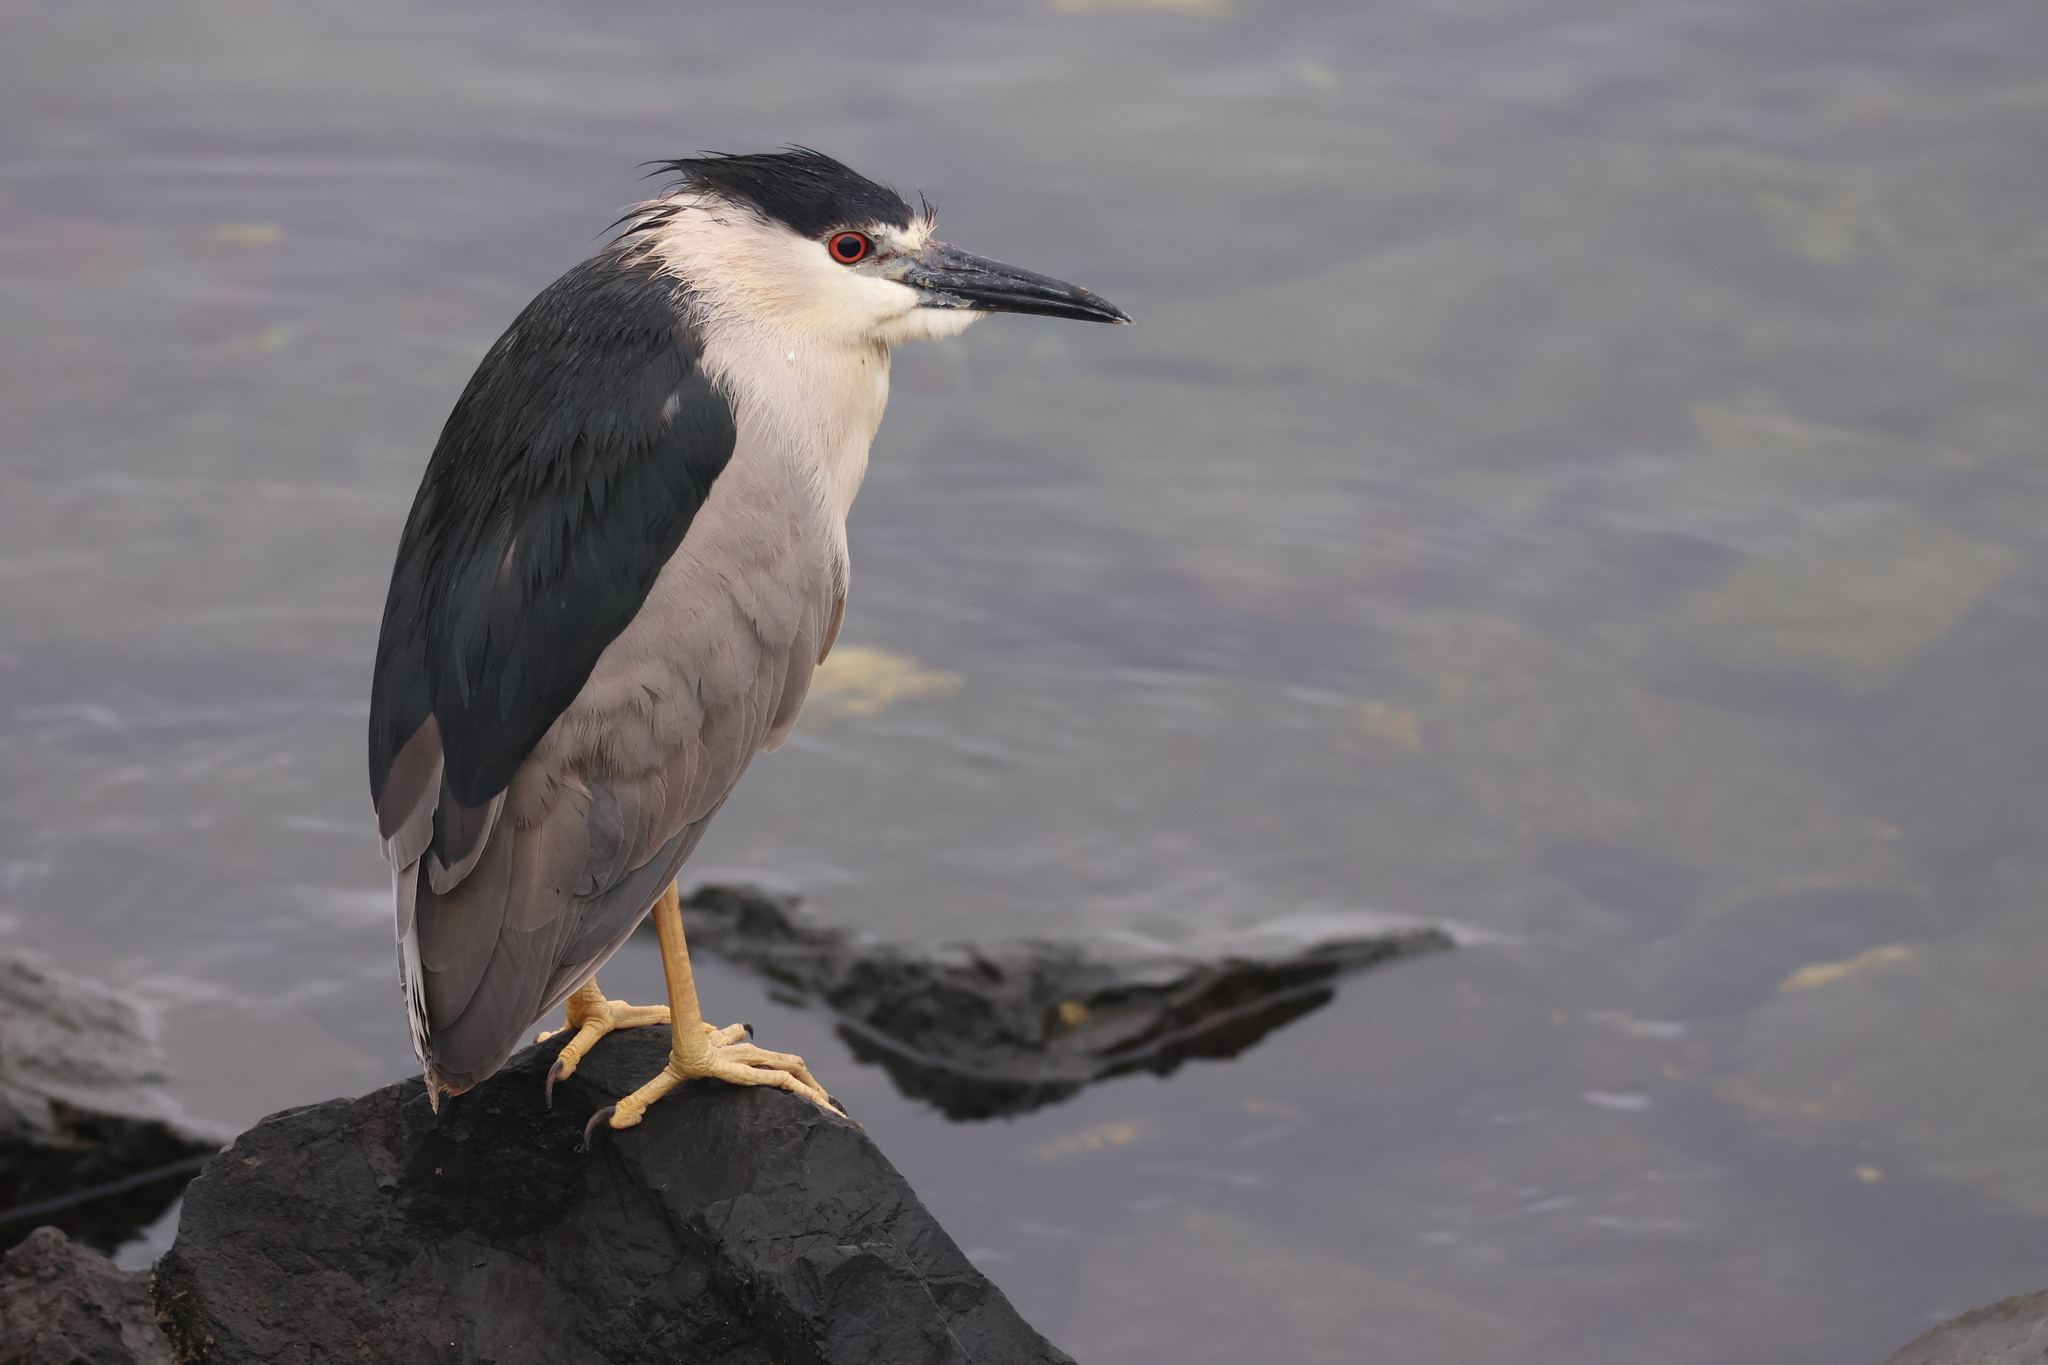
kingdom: Animalia
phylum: Chordata
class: Aves
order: Pelecaniformes
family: Ardeidae
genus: Nycticorax
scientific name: Nycticorax nycticorax
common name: Black-crowned night heron
